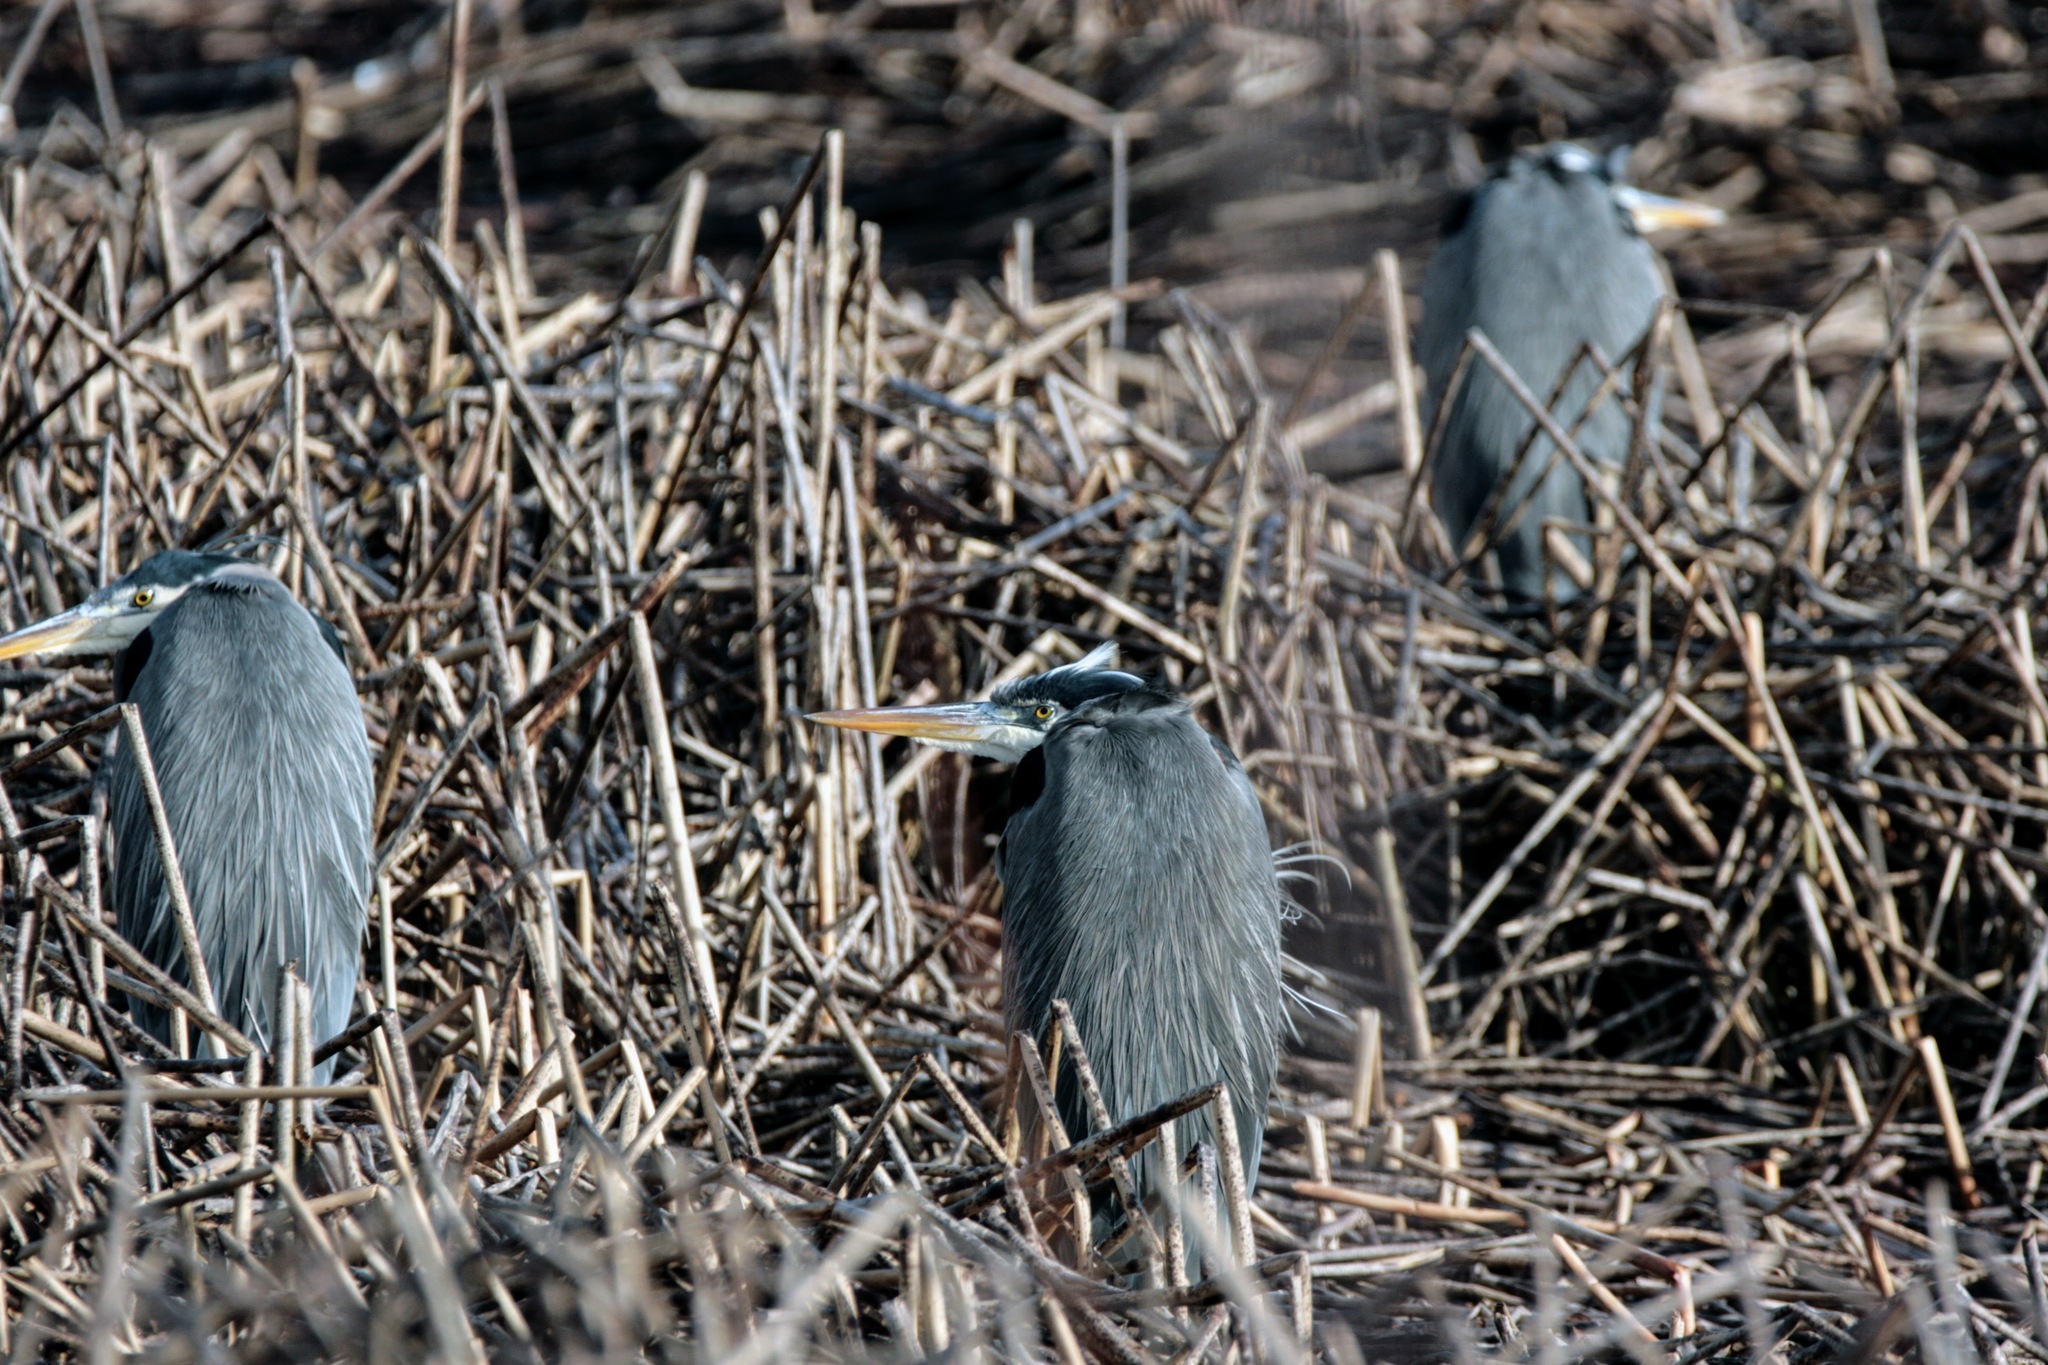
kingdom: Animalia
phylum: Chordata
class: Aves
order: Pelecaniformes
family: Ardeidae
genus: Ardea
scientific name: Ardea herodias
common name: Great blue heron
